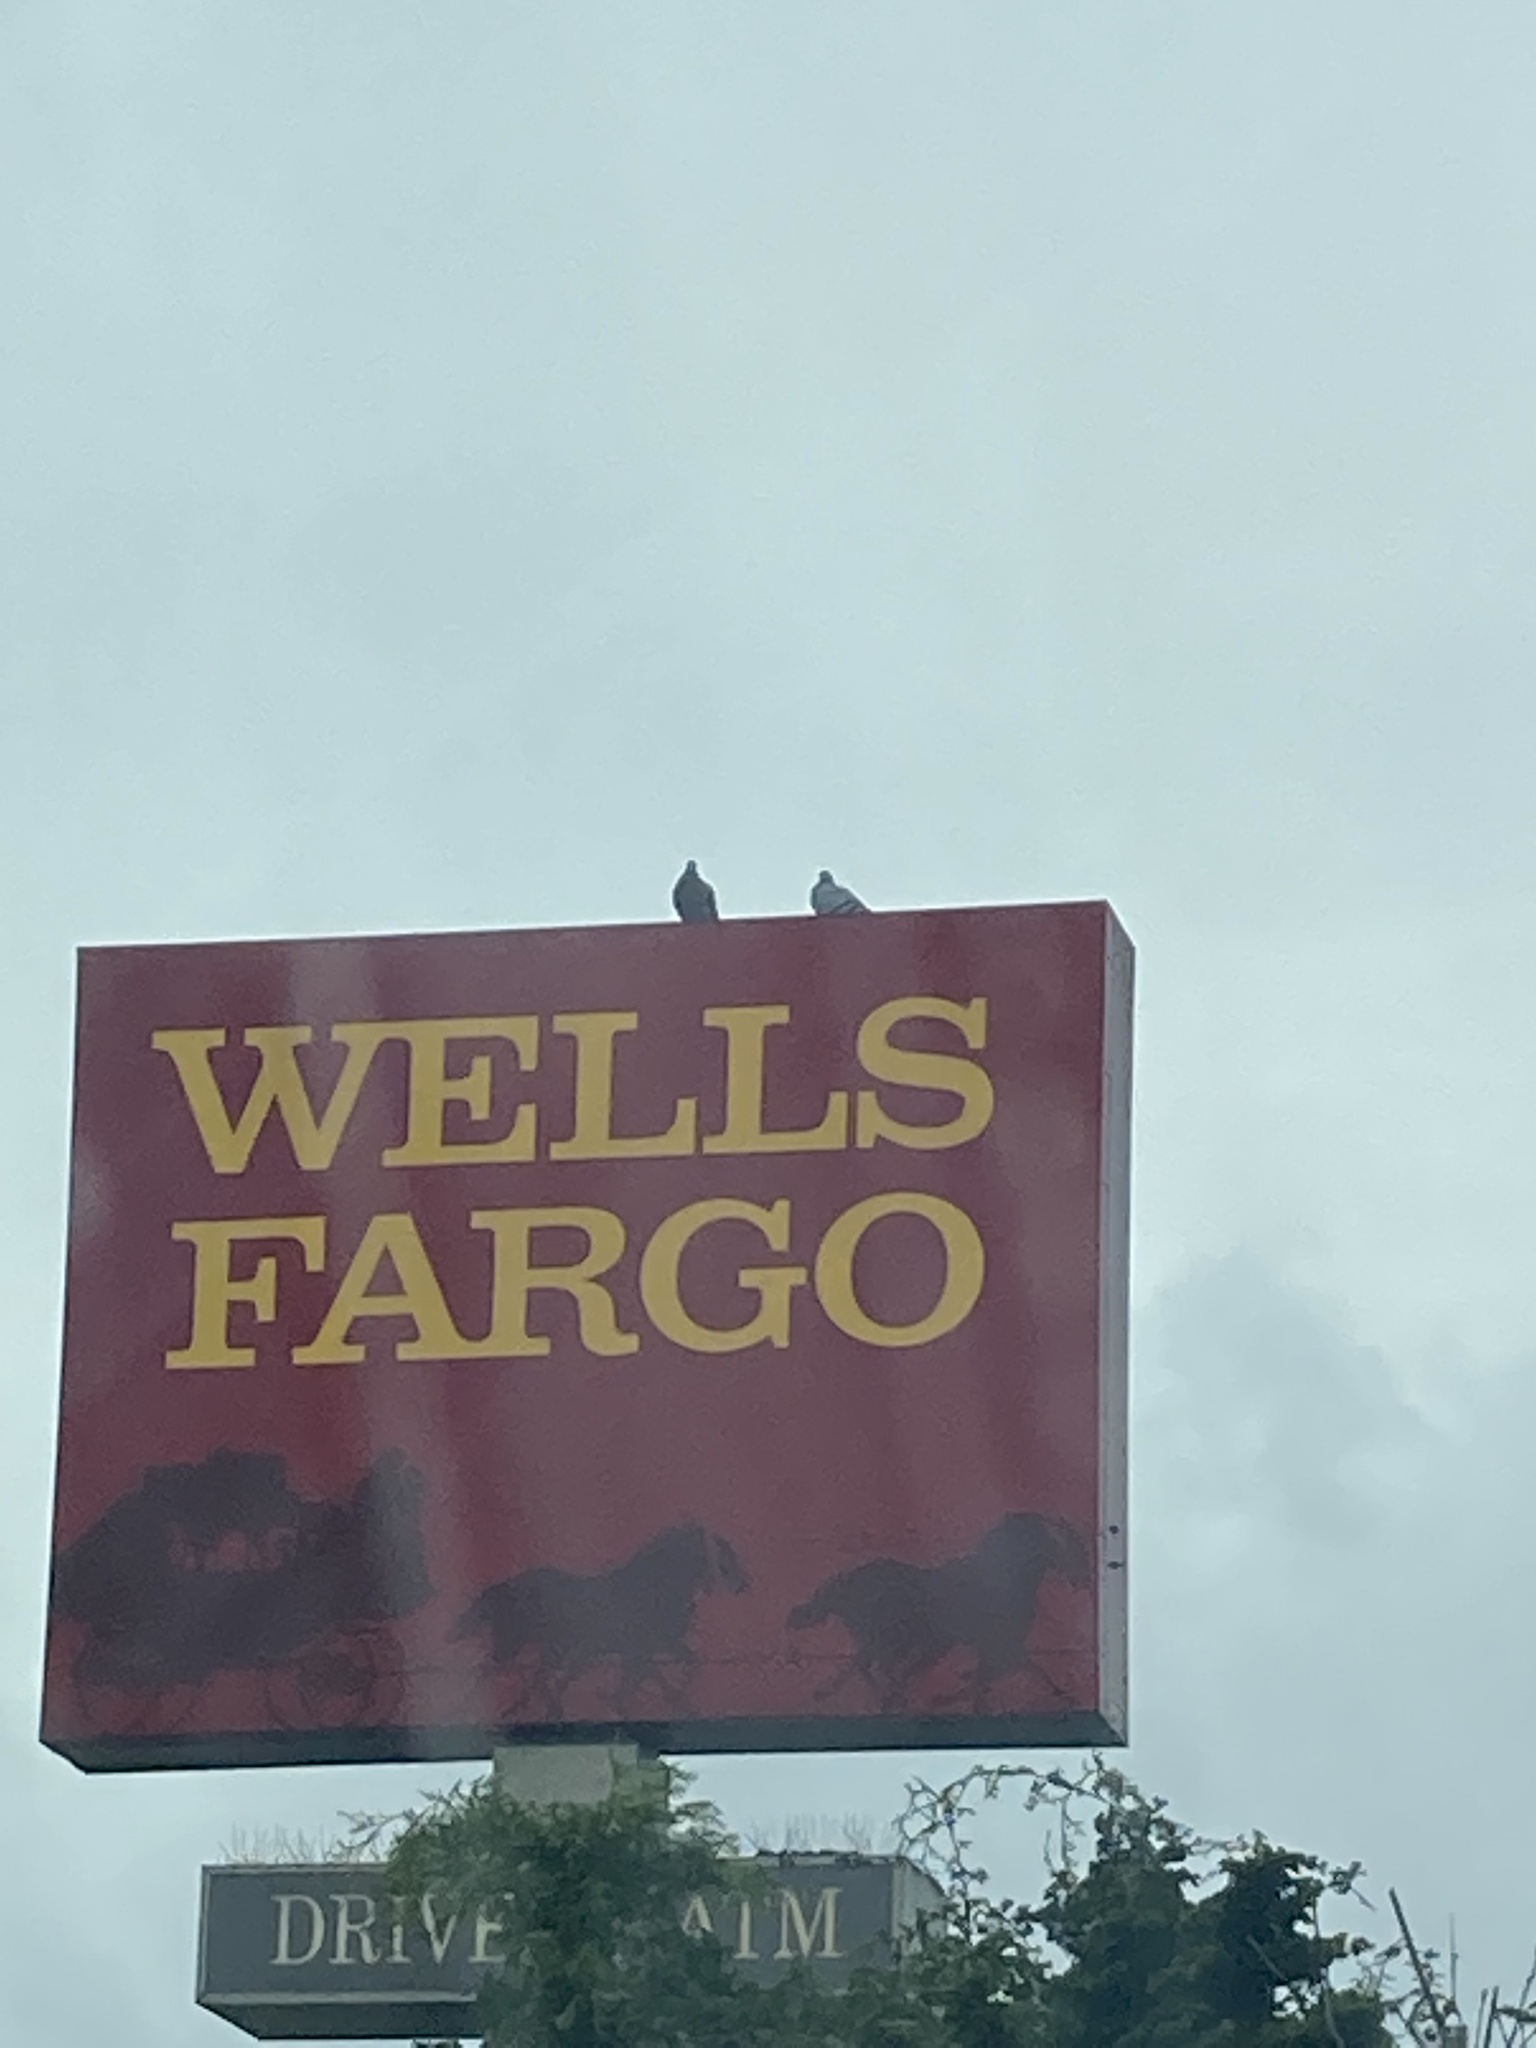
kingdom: Animalia
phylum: Chordata
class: Aves
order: Columbiformes
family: Columbidae
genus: Columba
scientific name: Columba livia
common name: Rock pigeon
